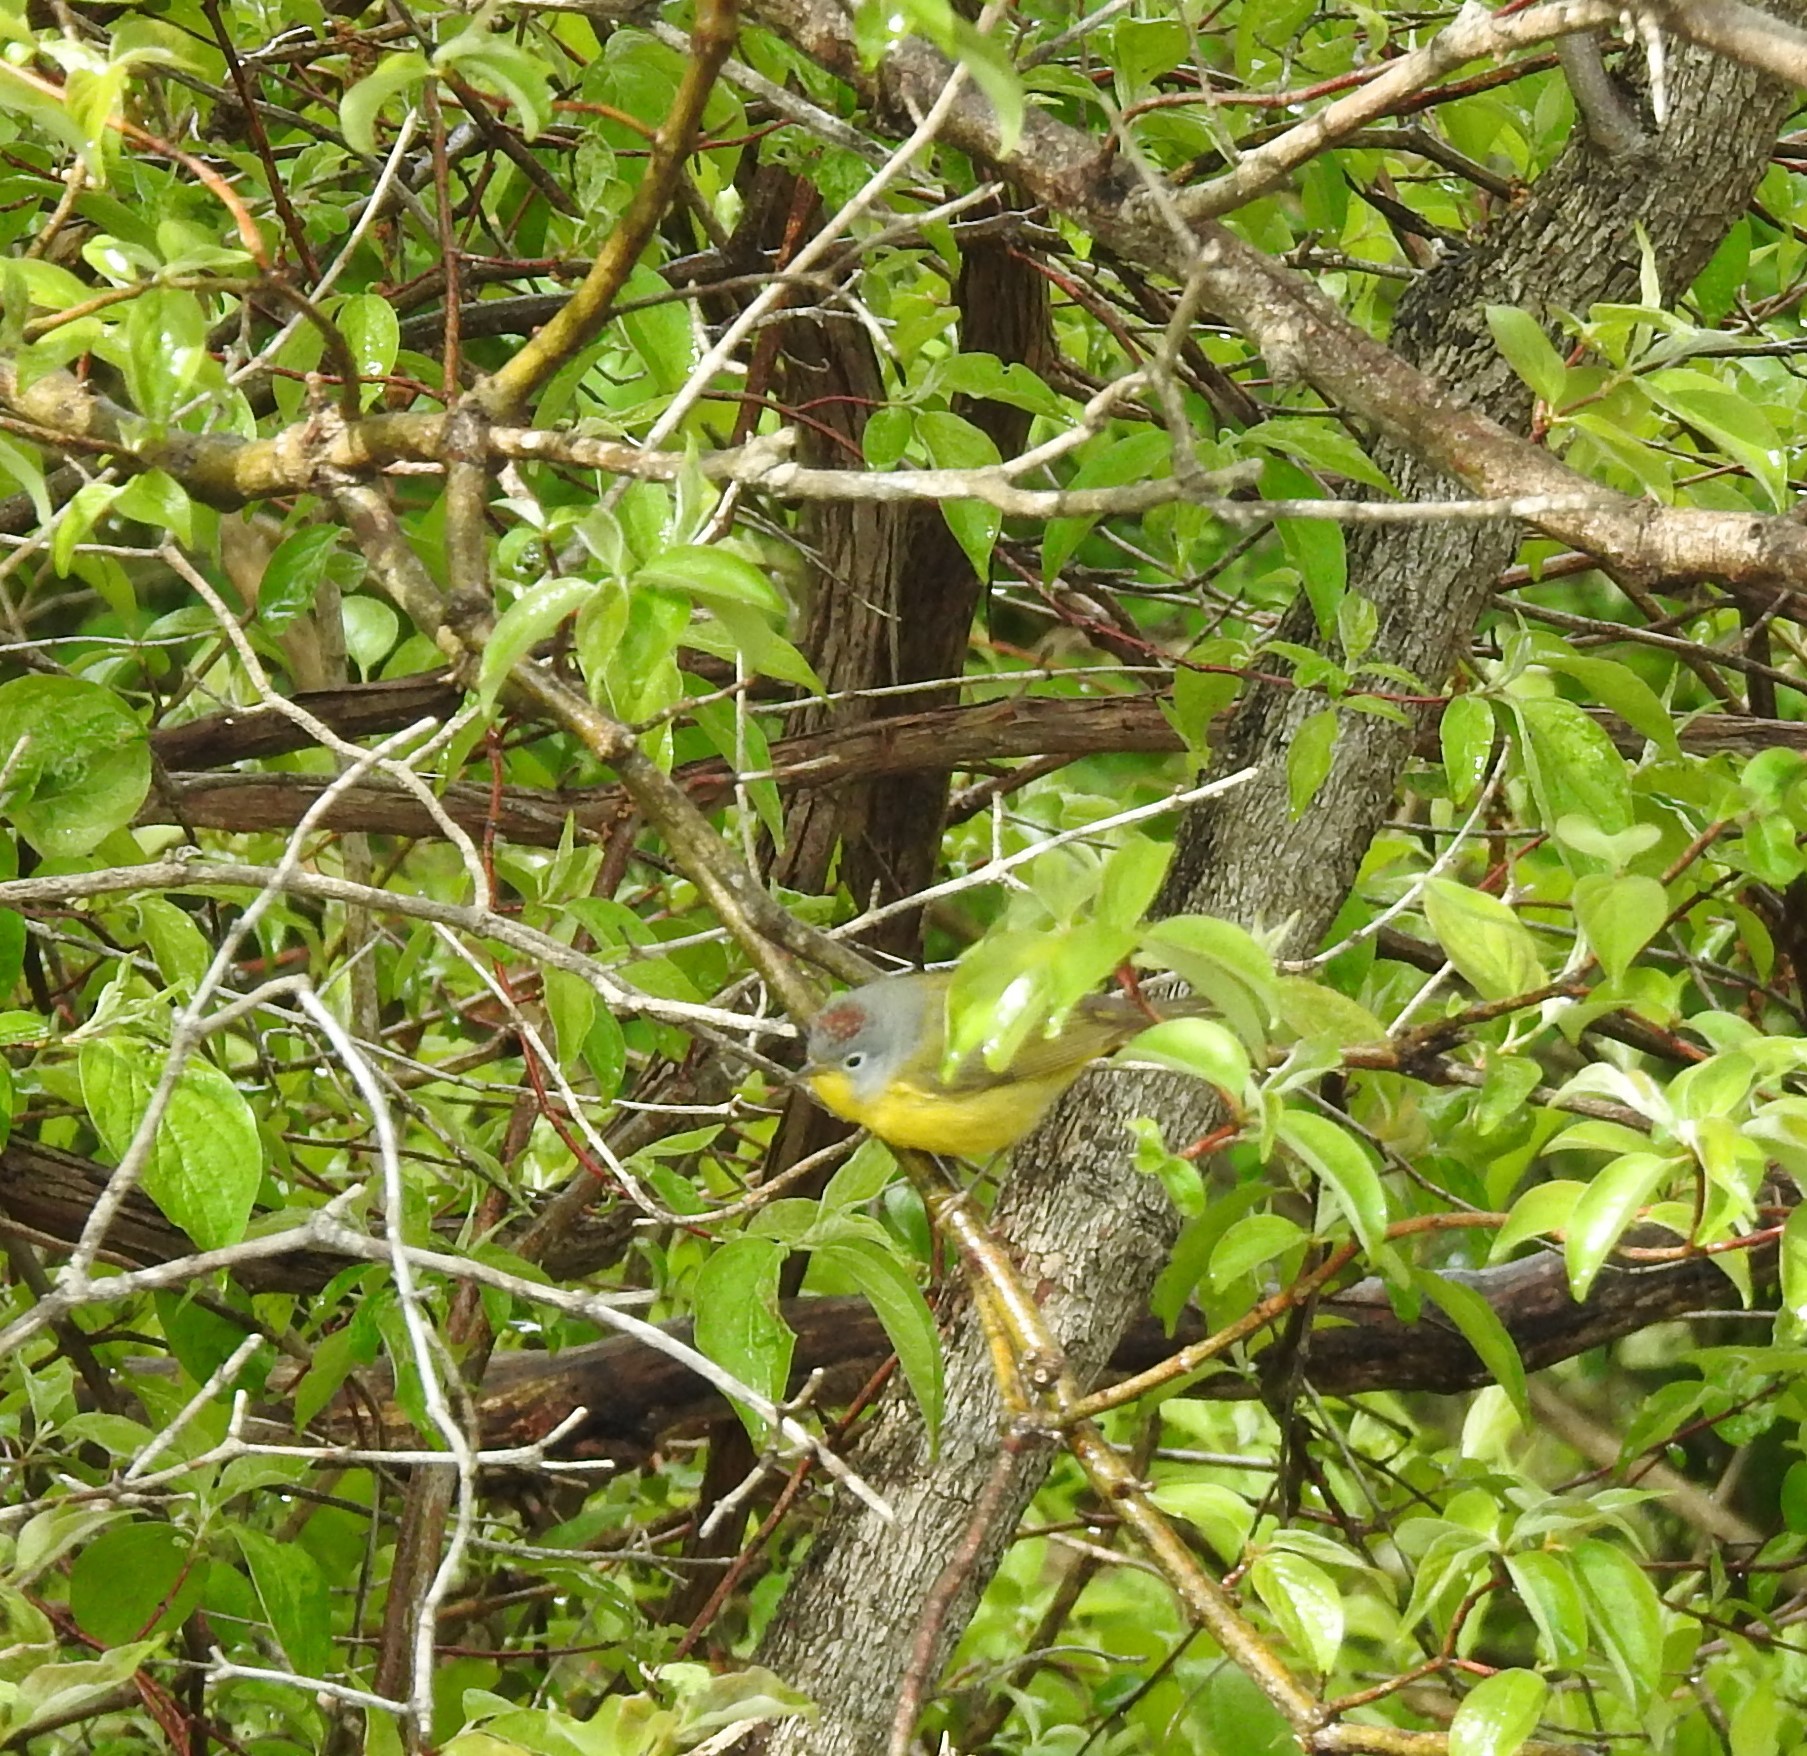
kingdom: Animalia
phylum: Chordata
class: Aves
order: Passeriformes
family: Parulidae
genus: Leiothlypis
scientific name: Leiothlypis ruficapilla
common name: Nashville warbler
